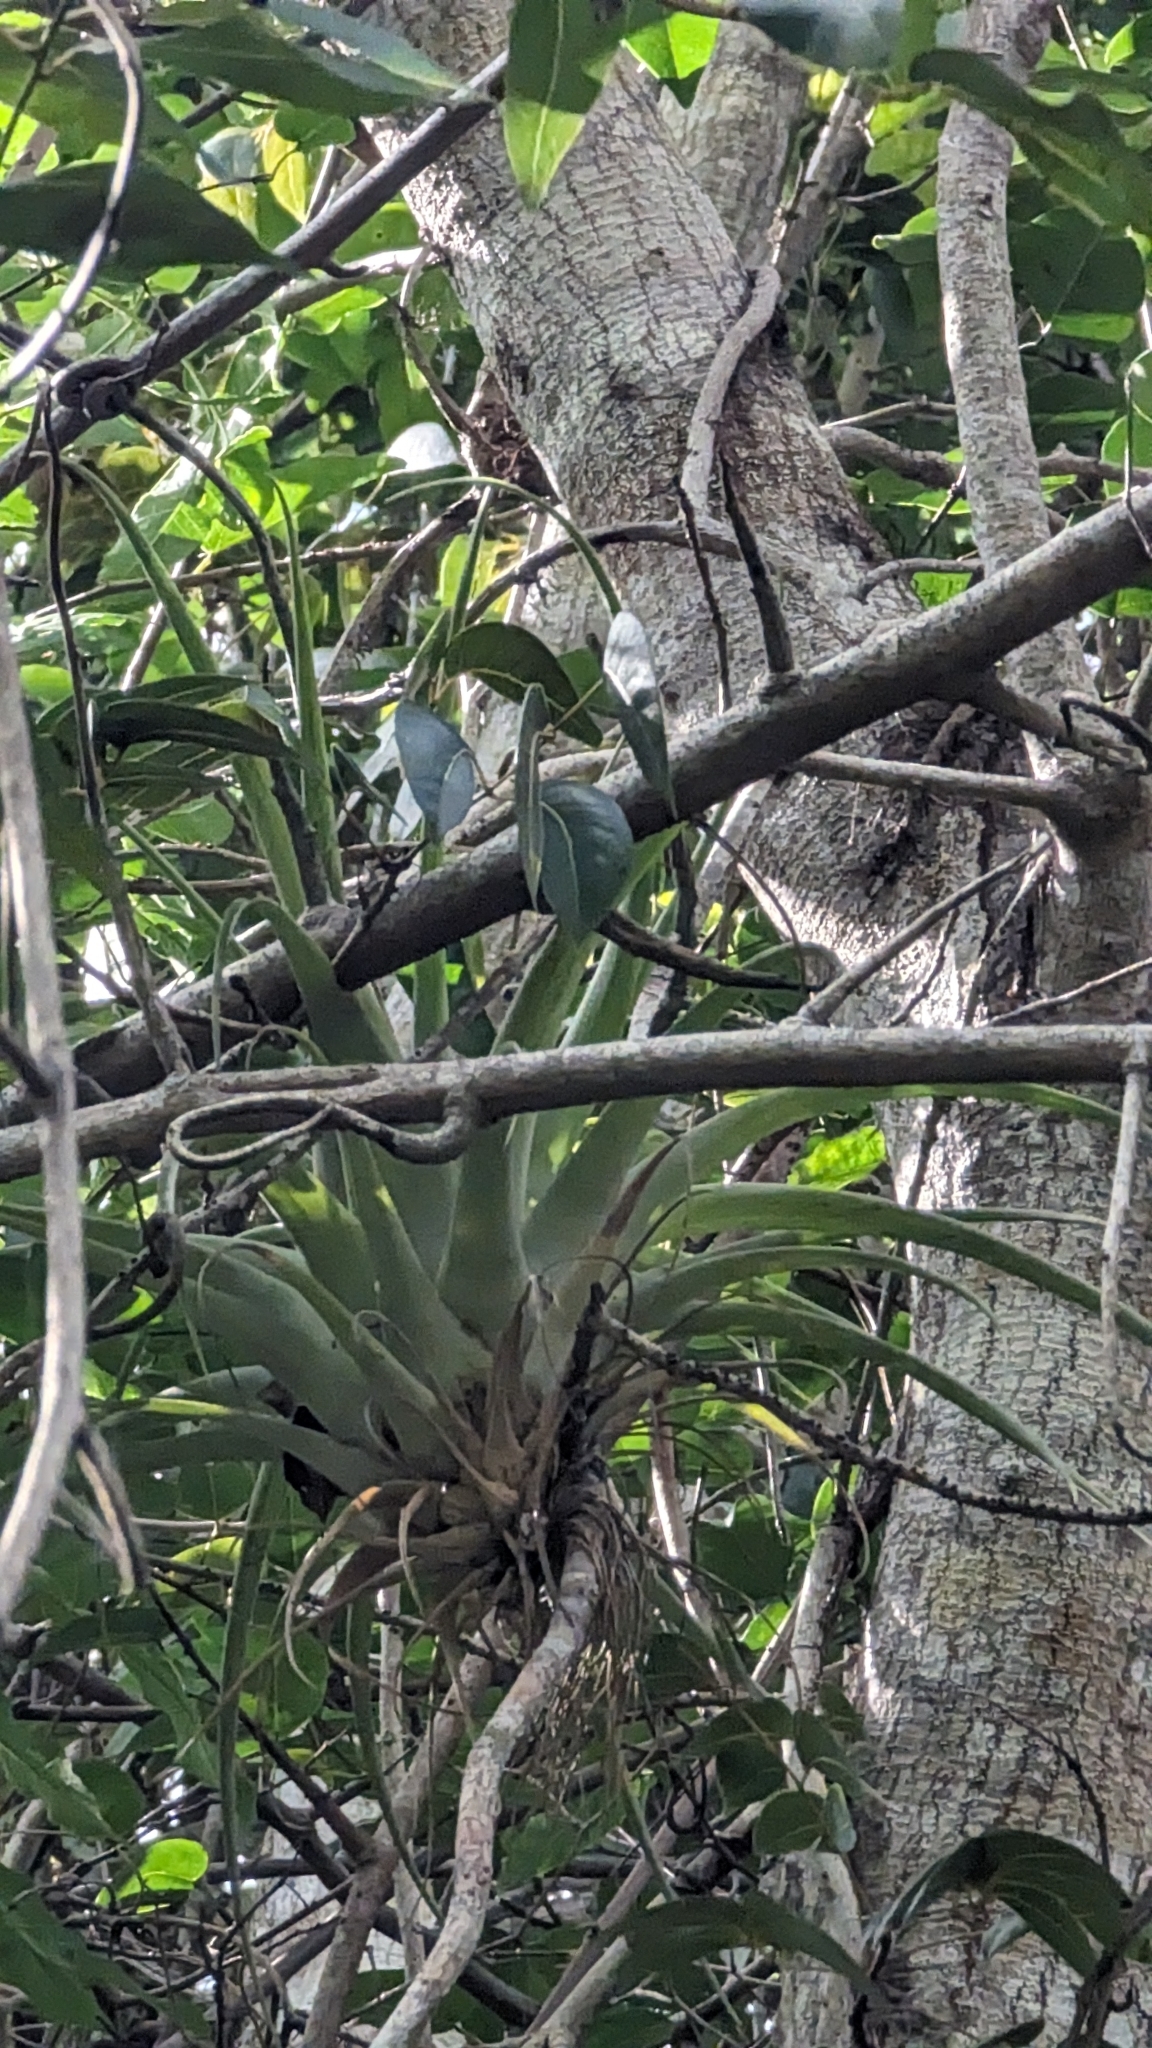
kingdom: Plantae
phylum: Tracheophyta
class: Liliopsida
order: Poales
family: Bromeliaceae
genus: Tillandsia
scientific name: Tillandsia utriculata
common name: Wild pine
